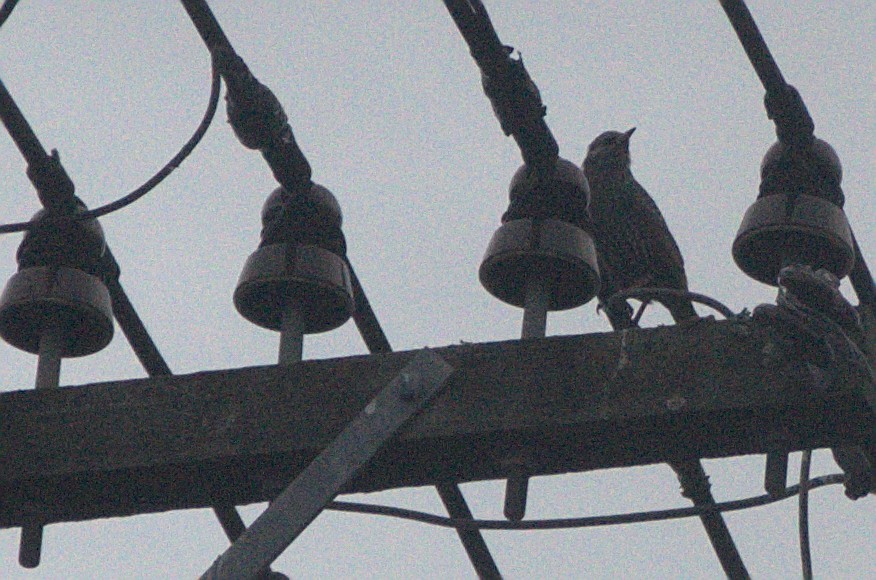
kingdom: Animalia
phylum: Chordata
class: Aves
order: Passeriformes
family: Sturnidae
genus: Sturnus
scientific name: Sturnus vulgaris
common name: Common starling
